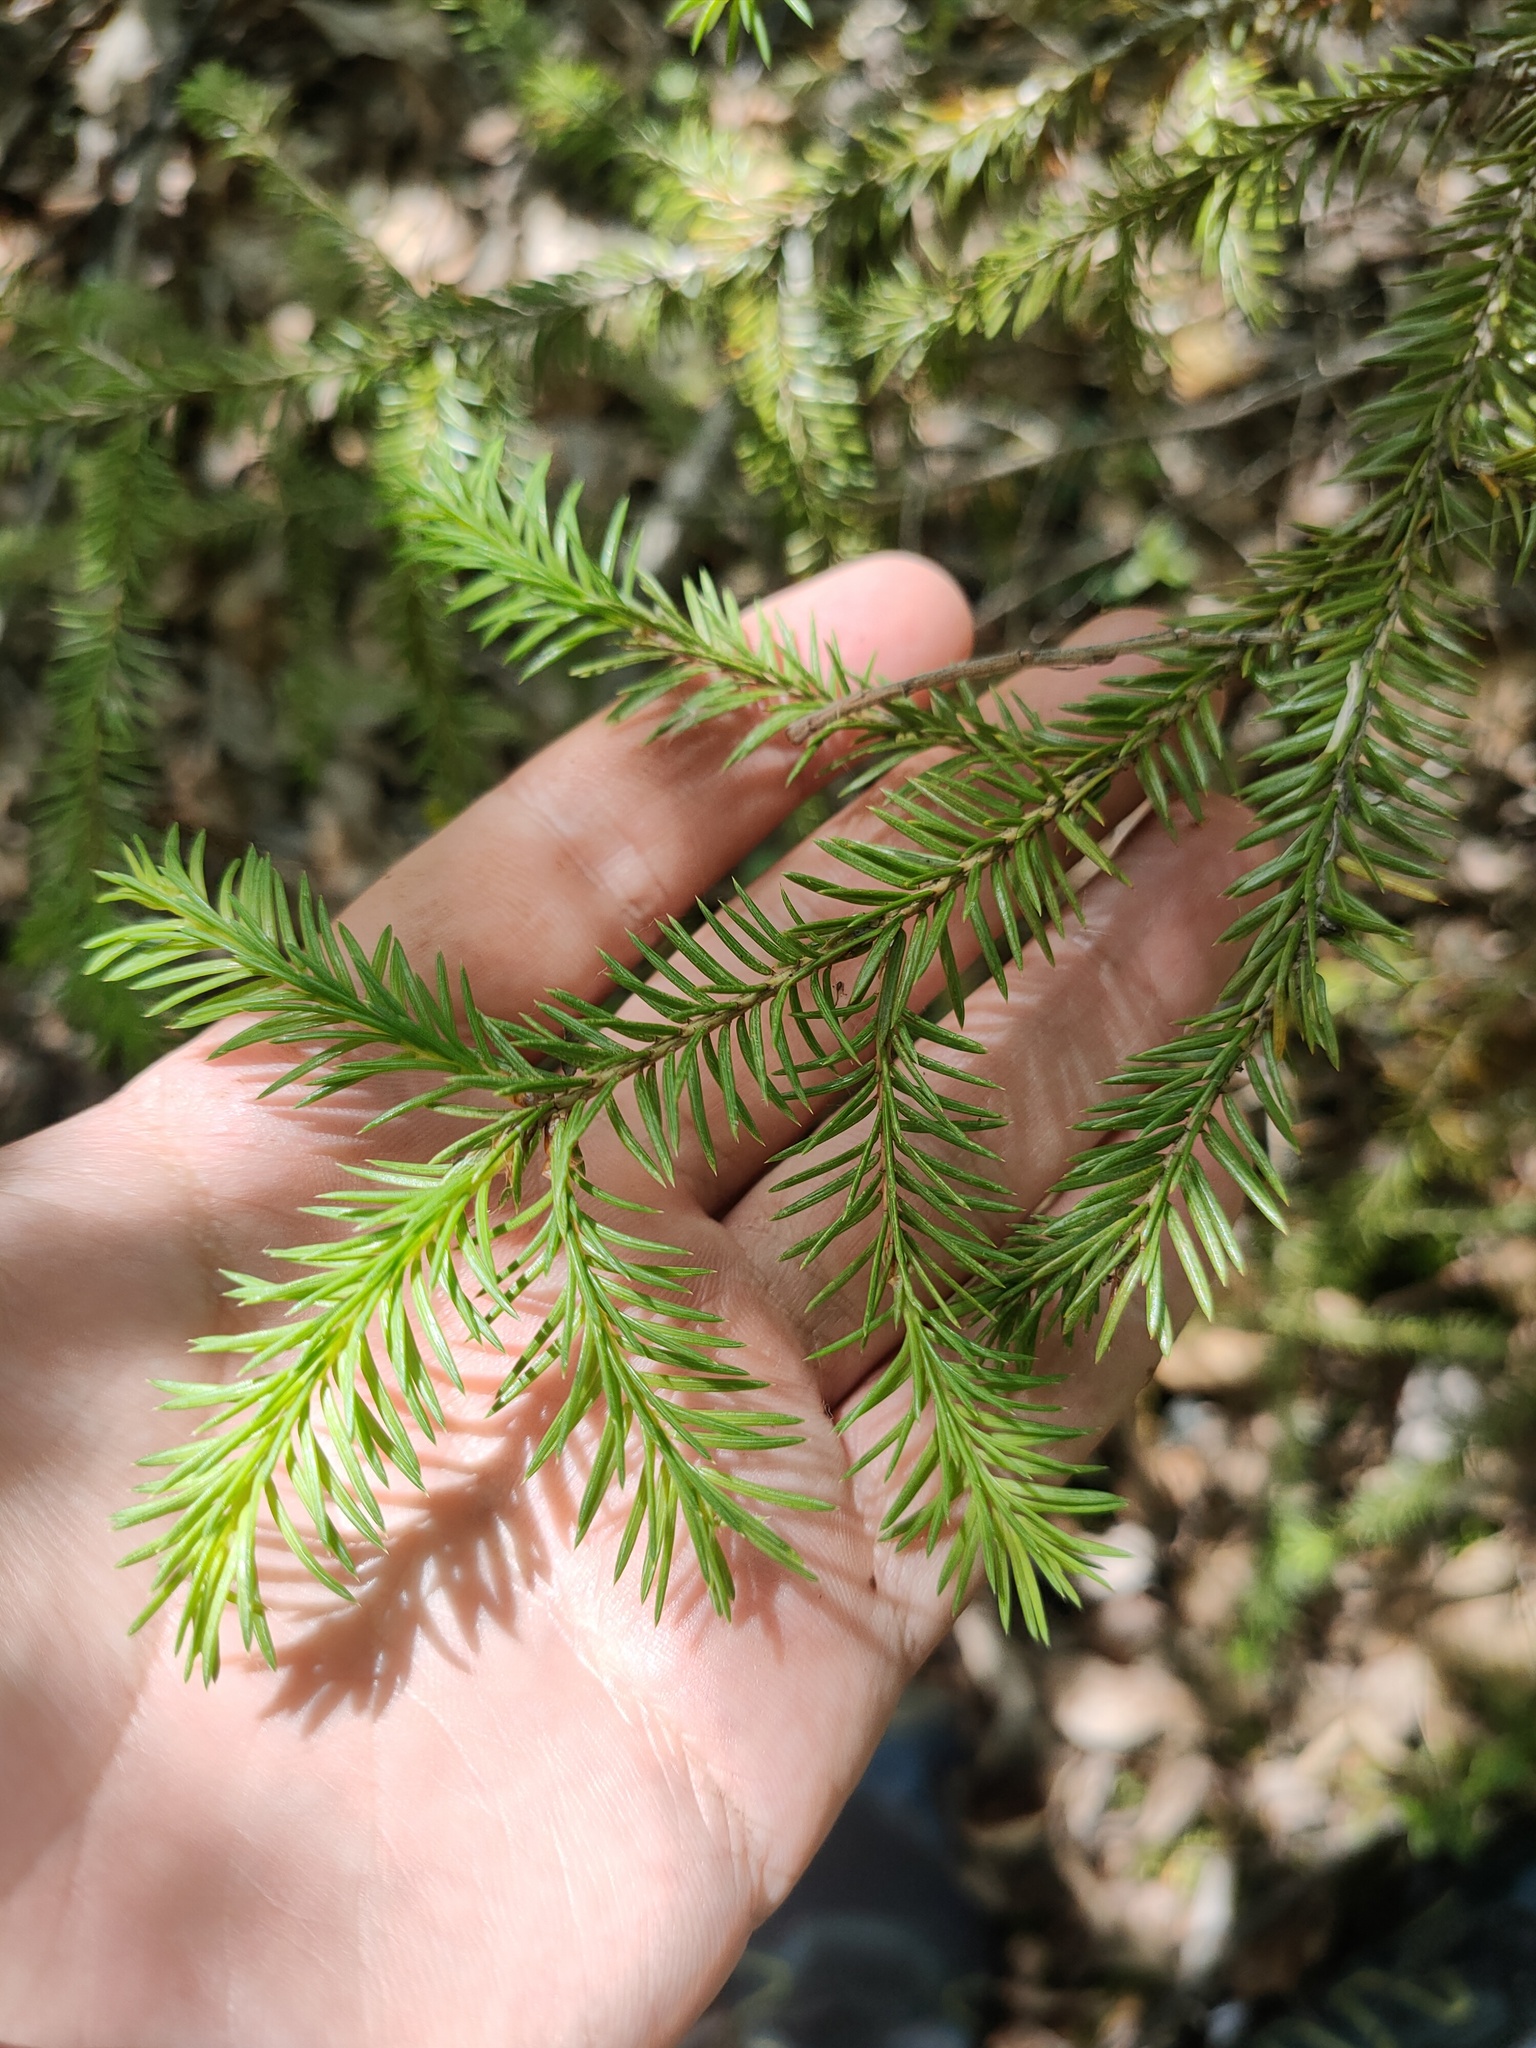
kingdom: Plantae
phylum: Tracheophyta
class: Pinopsida
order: Pinales
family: Pinaceae
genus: Picea
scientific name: Picea
